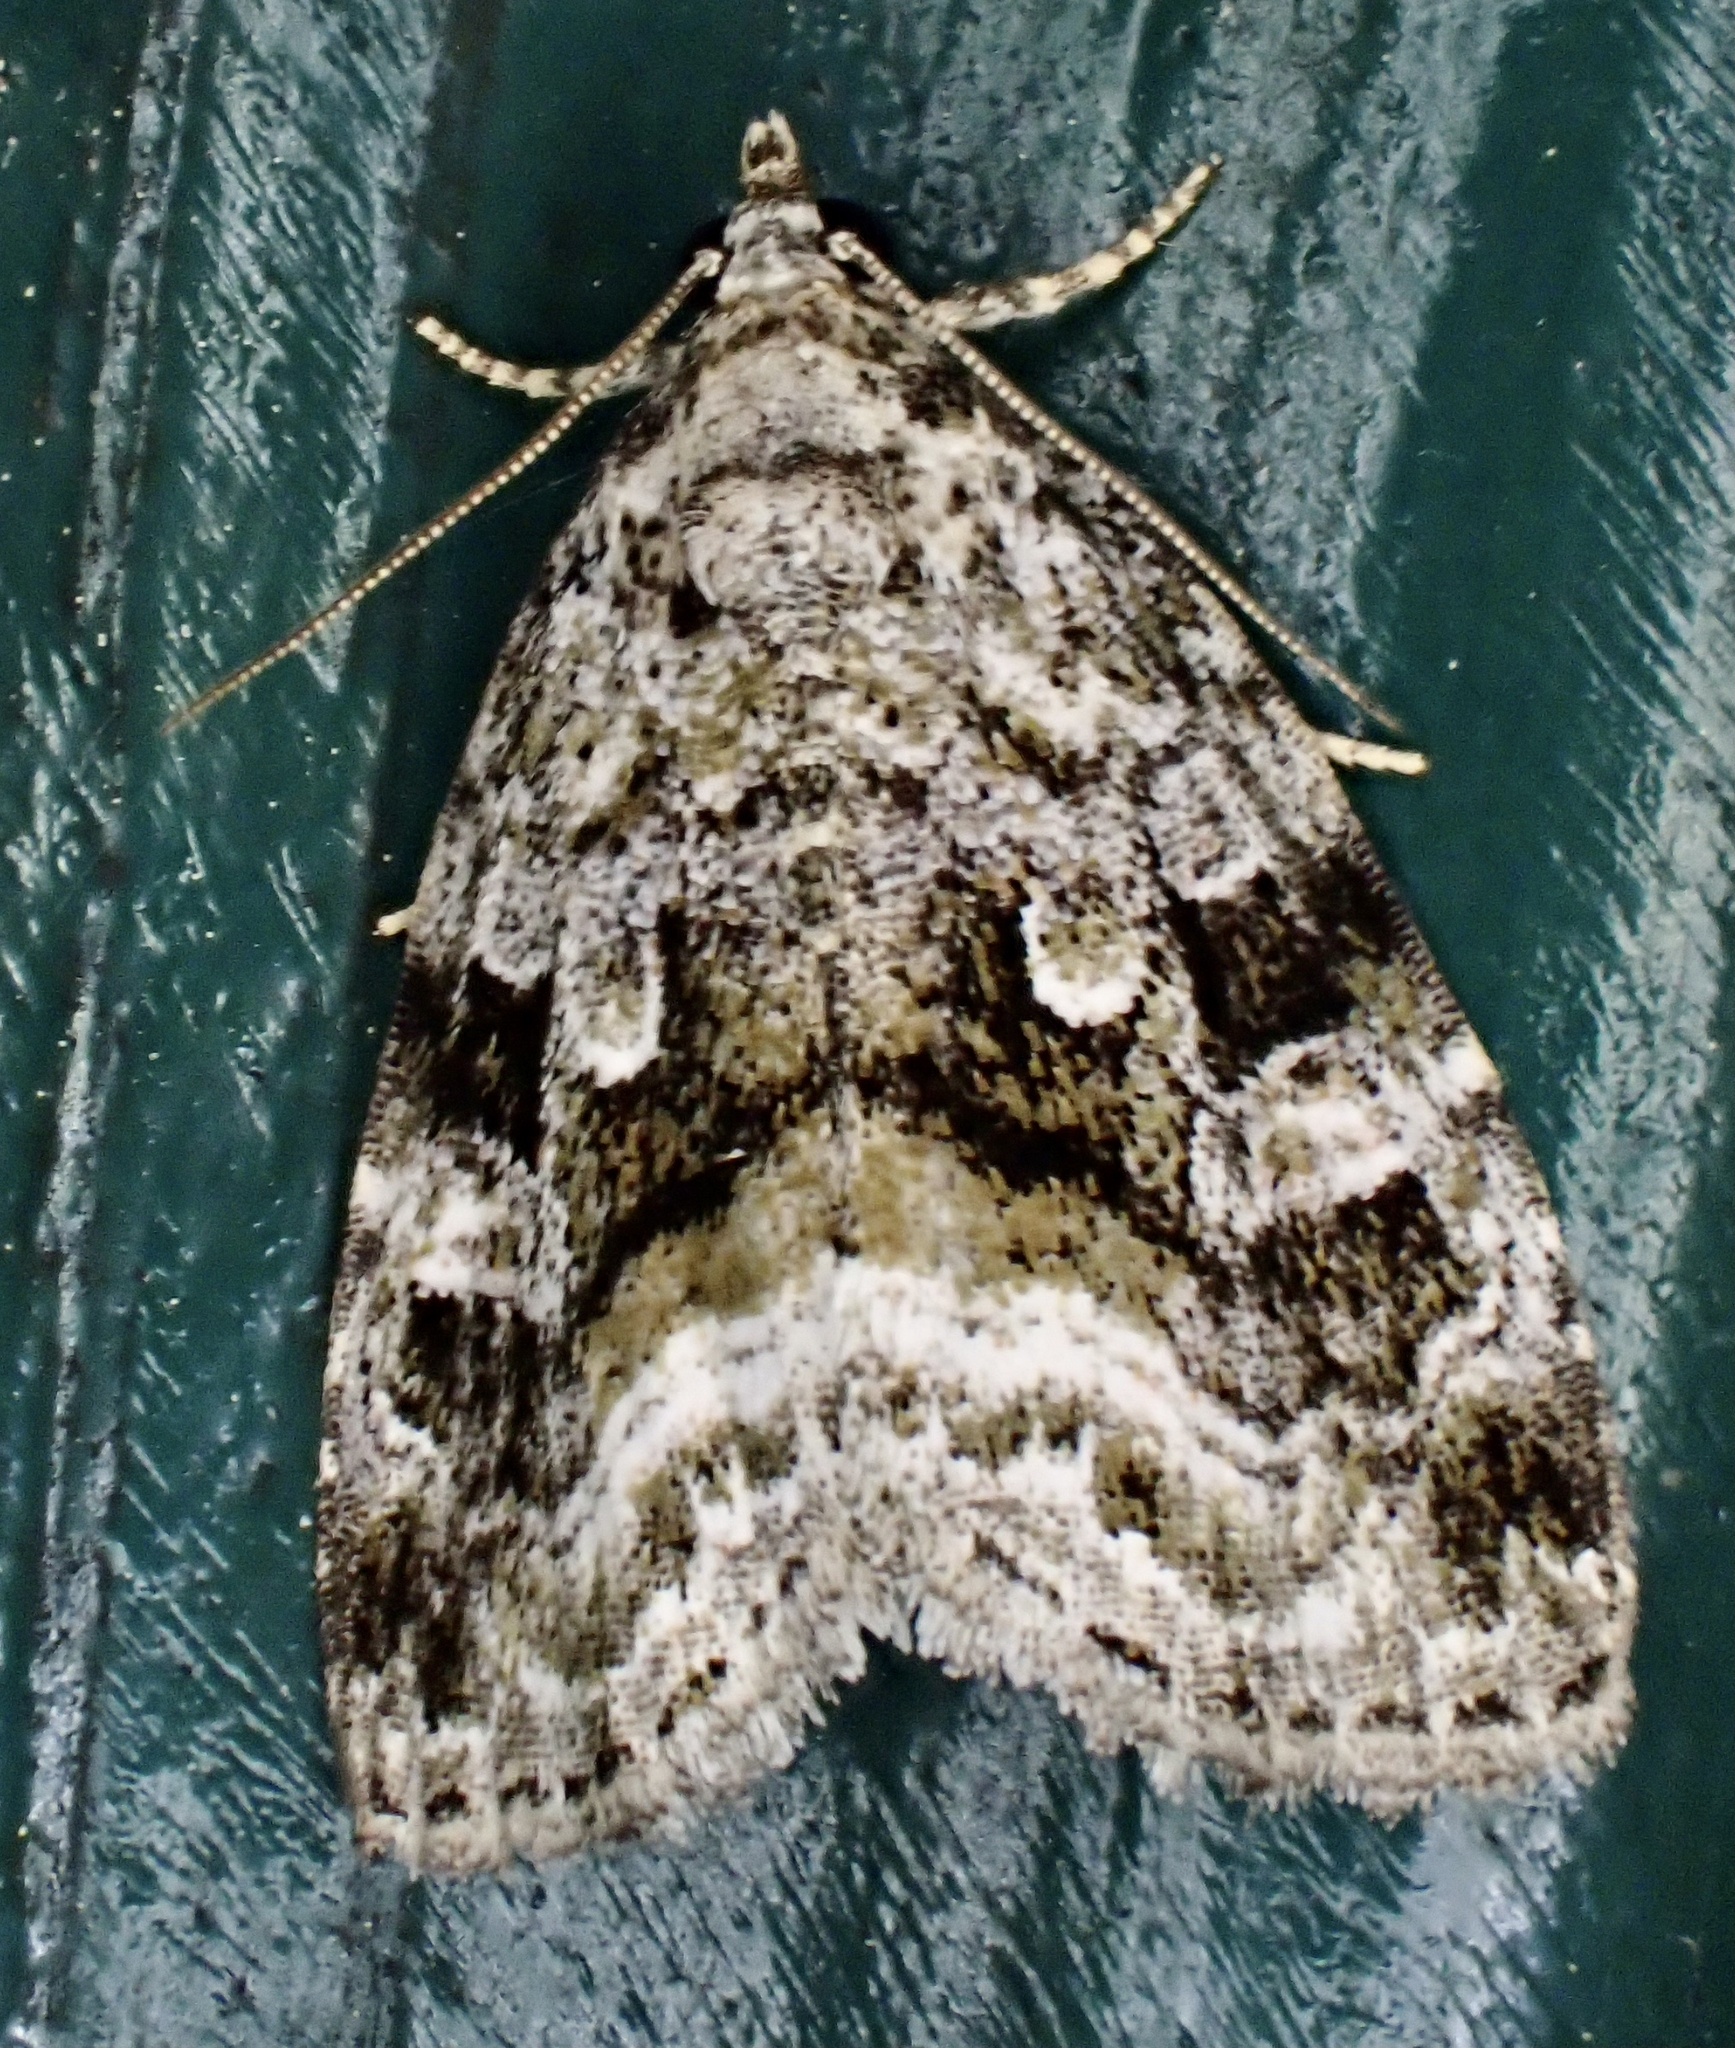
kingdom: Animalia
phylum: Arthropoda
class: Insecta
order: Lepidoptera
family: Noctuidae
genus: Protodeltote
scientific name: Protodeltote muscosula
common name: Large mossy glyph
